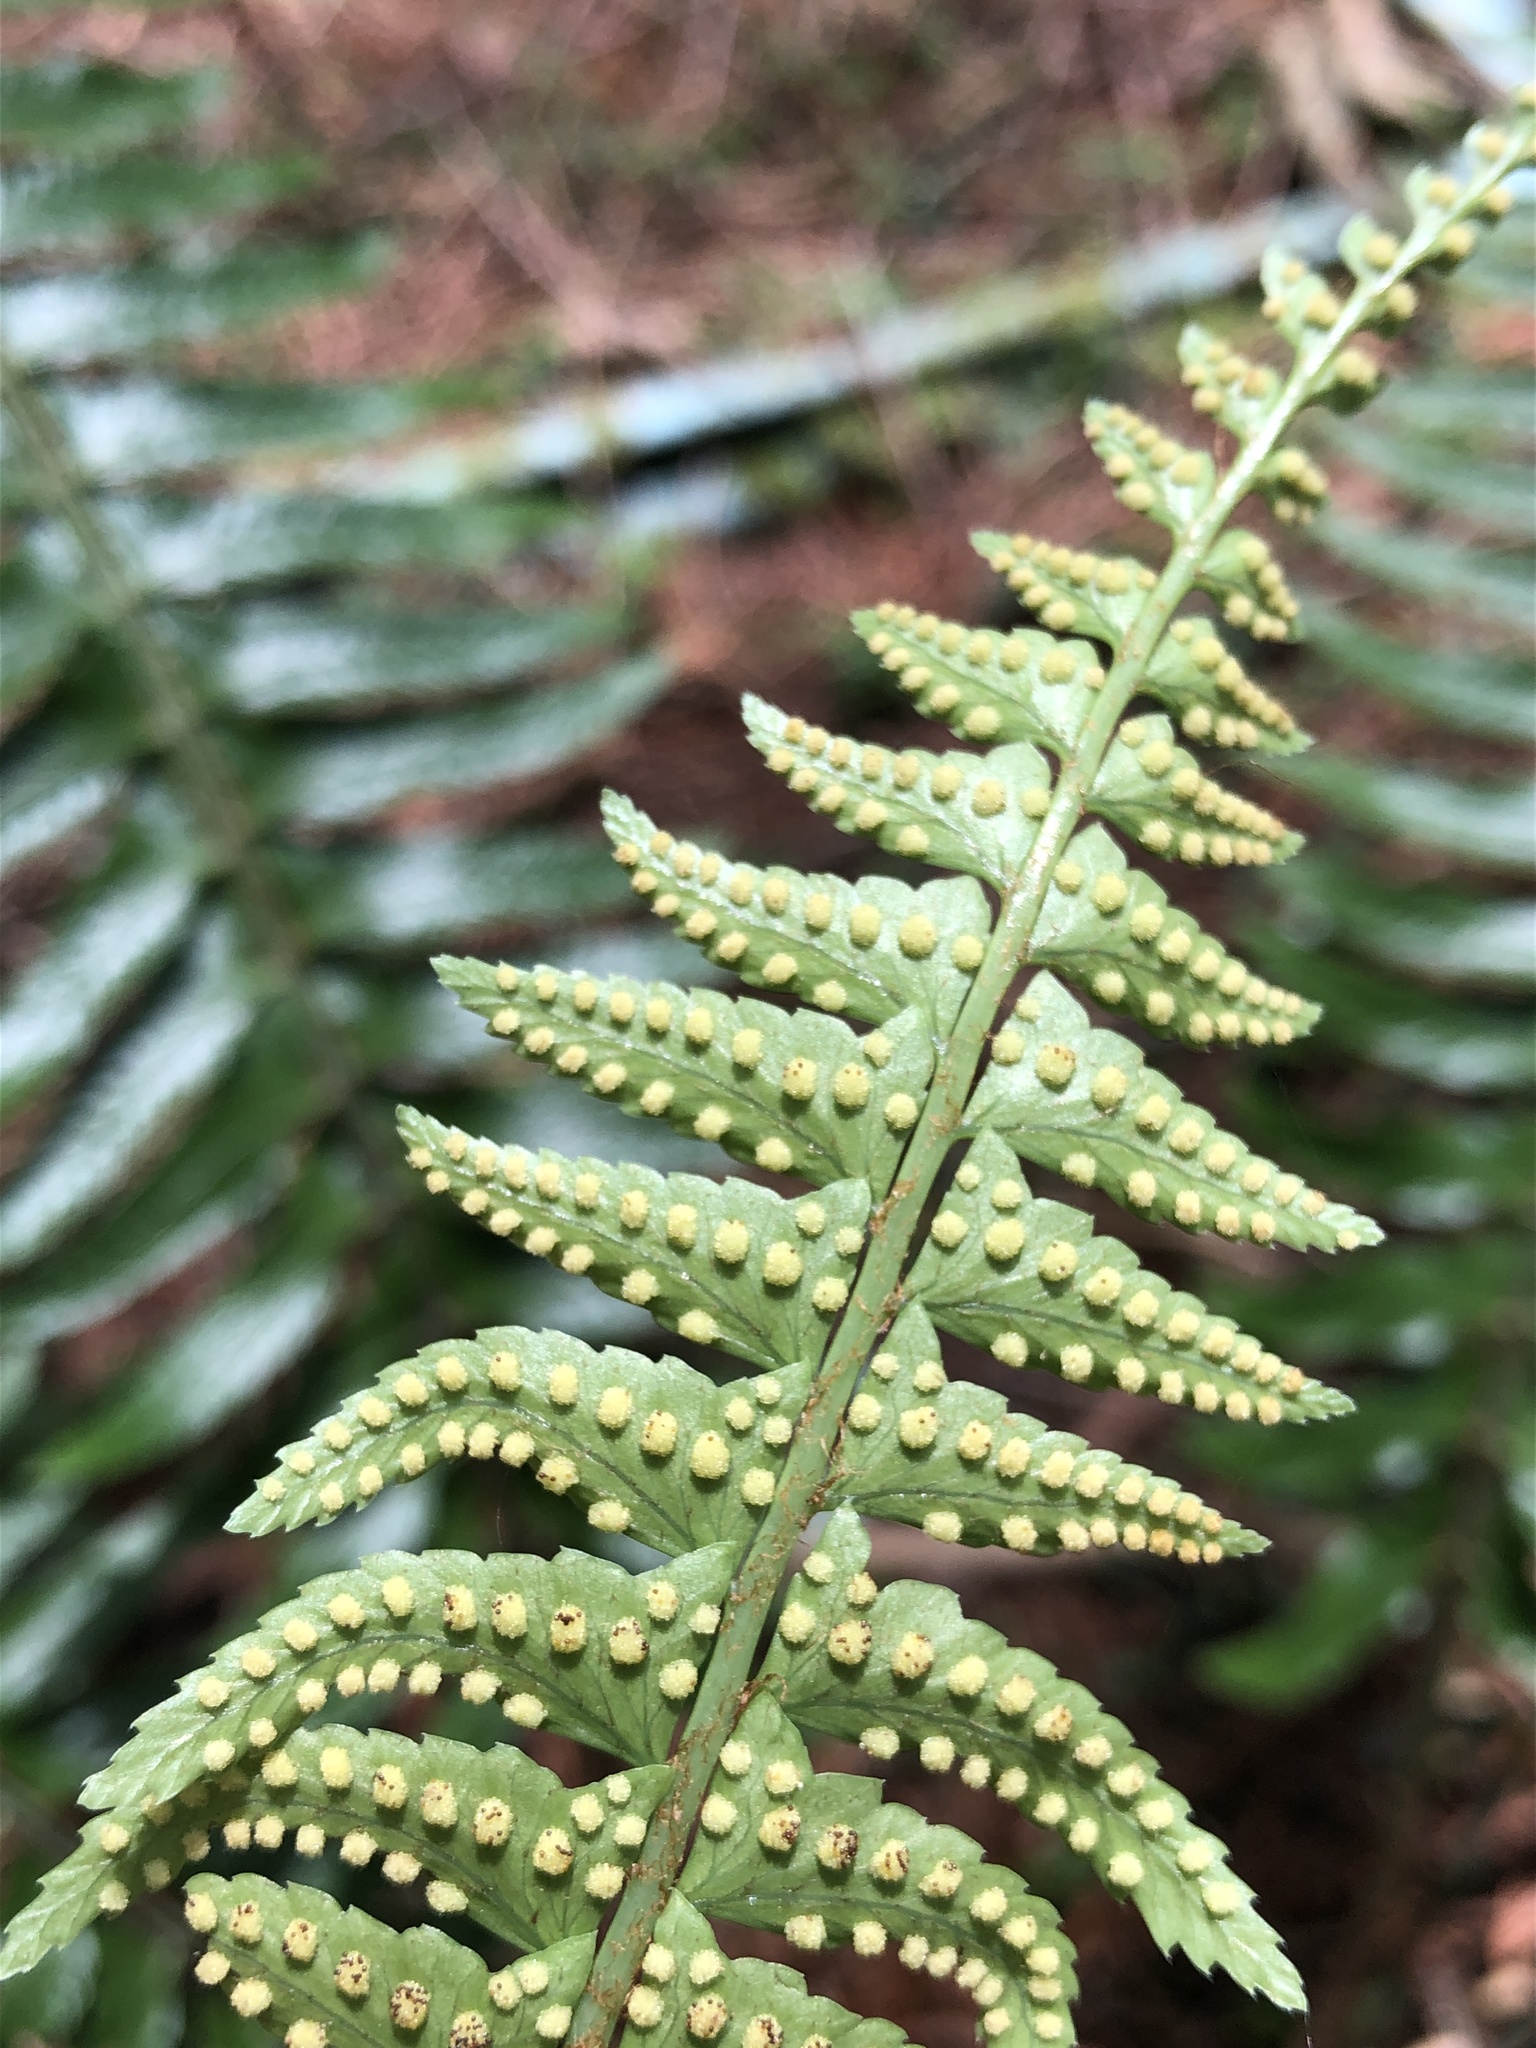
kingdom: Plantae
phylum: Tracheophyta
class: Polypodiopsida
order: Polypodiales
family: Dryopteridaceae
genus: Polystichum
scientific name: Polystichum acutidens
